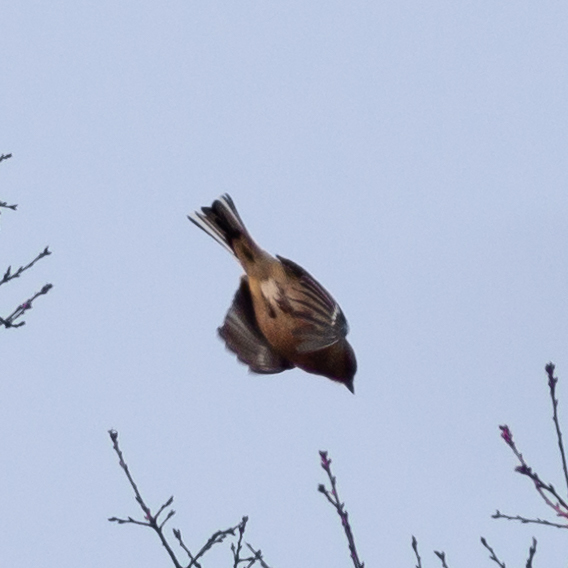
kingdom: Animalia
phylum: Chordata
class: Aves
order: Passeriformes
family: Fringillidae
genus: Fringilla
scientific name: Fringilla coelebs
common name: Common chaffinch
